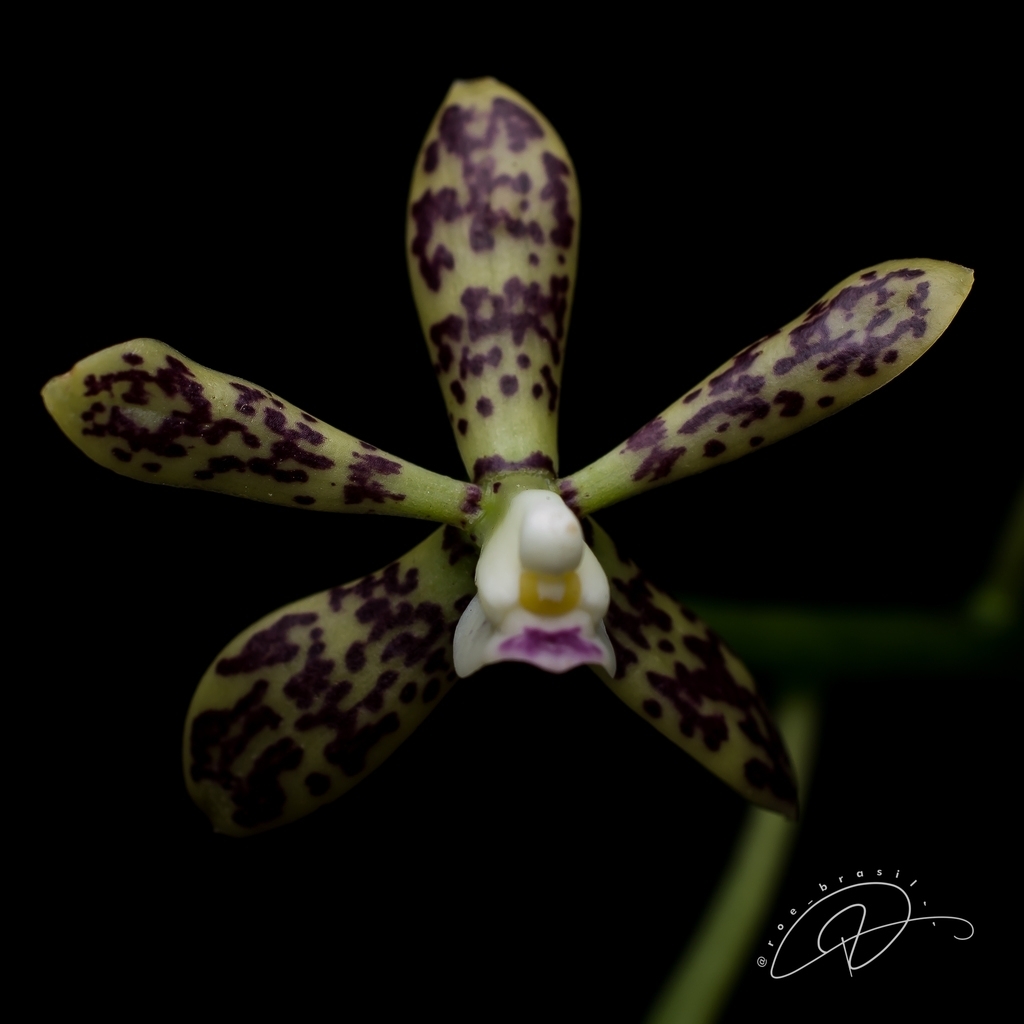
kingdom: Plantae
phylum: Tracheophyta
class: Liliopsida
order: Asparagales
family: Orchidaceae
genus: Prosthechea
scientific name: Prosthechea tigrina
